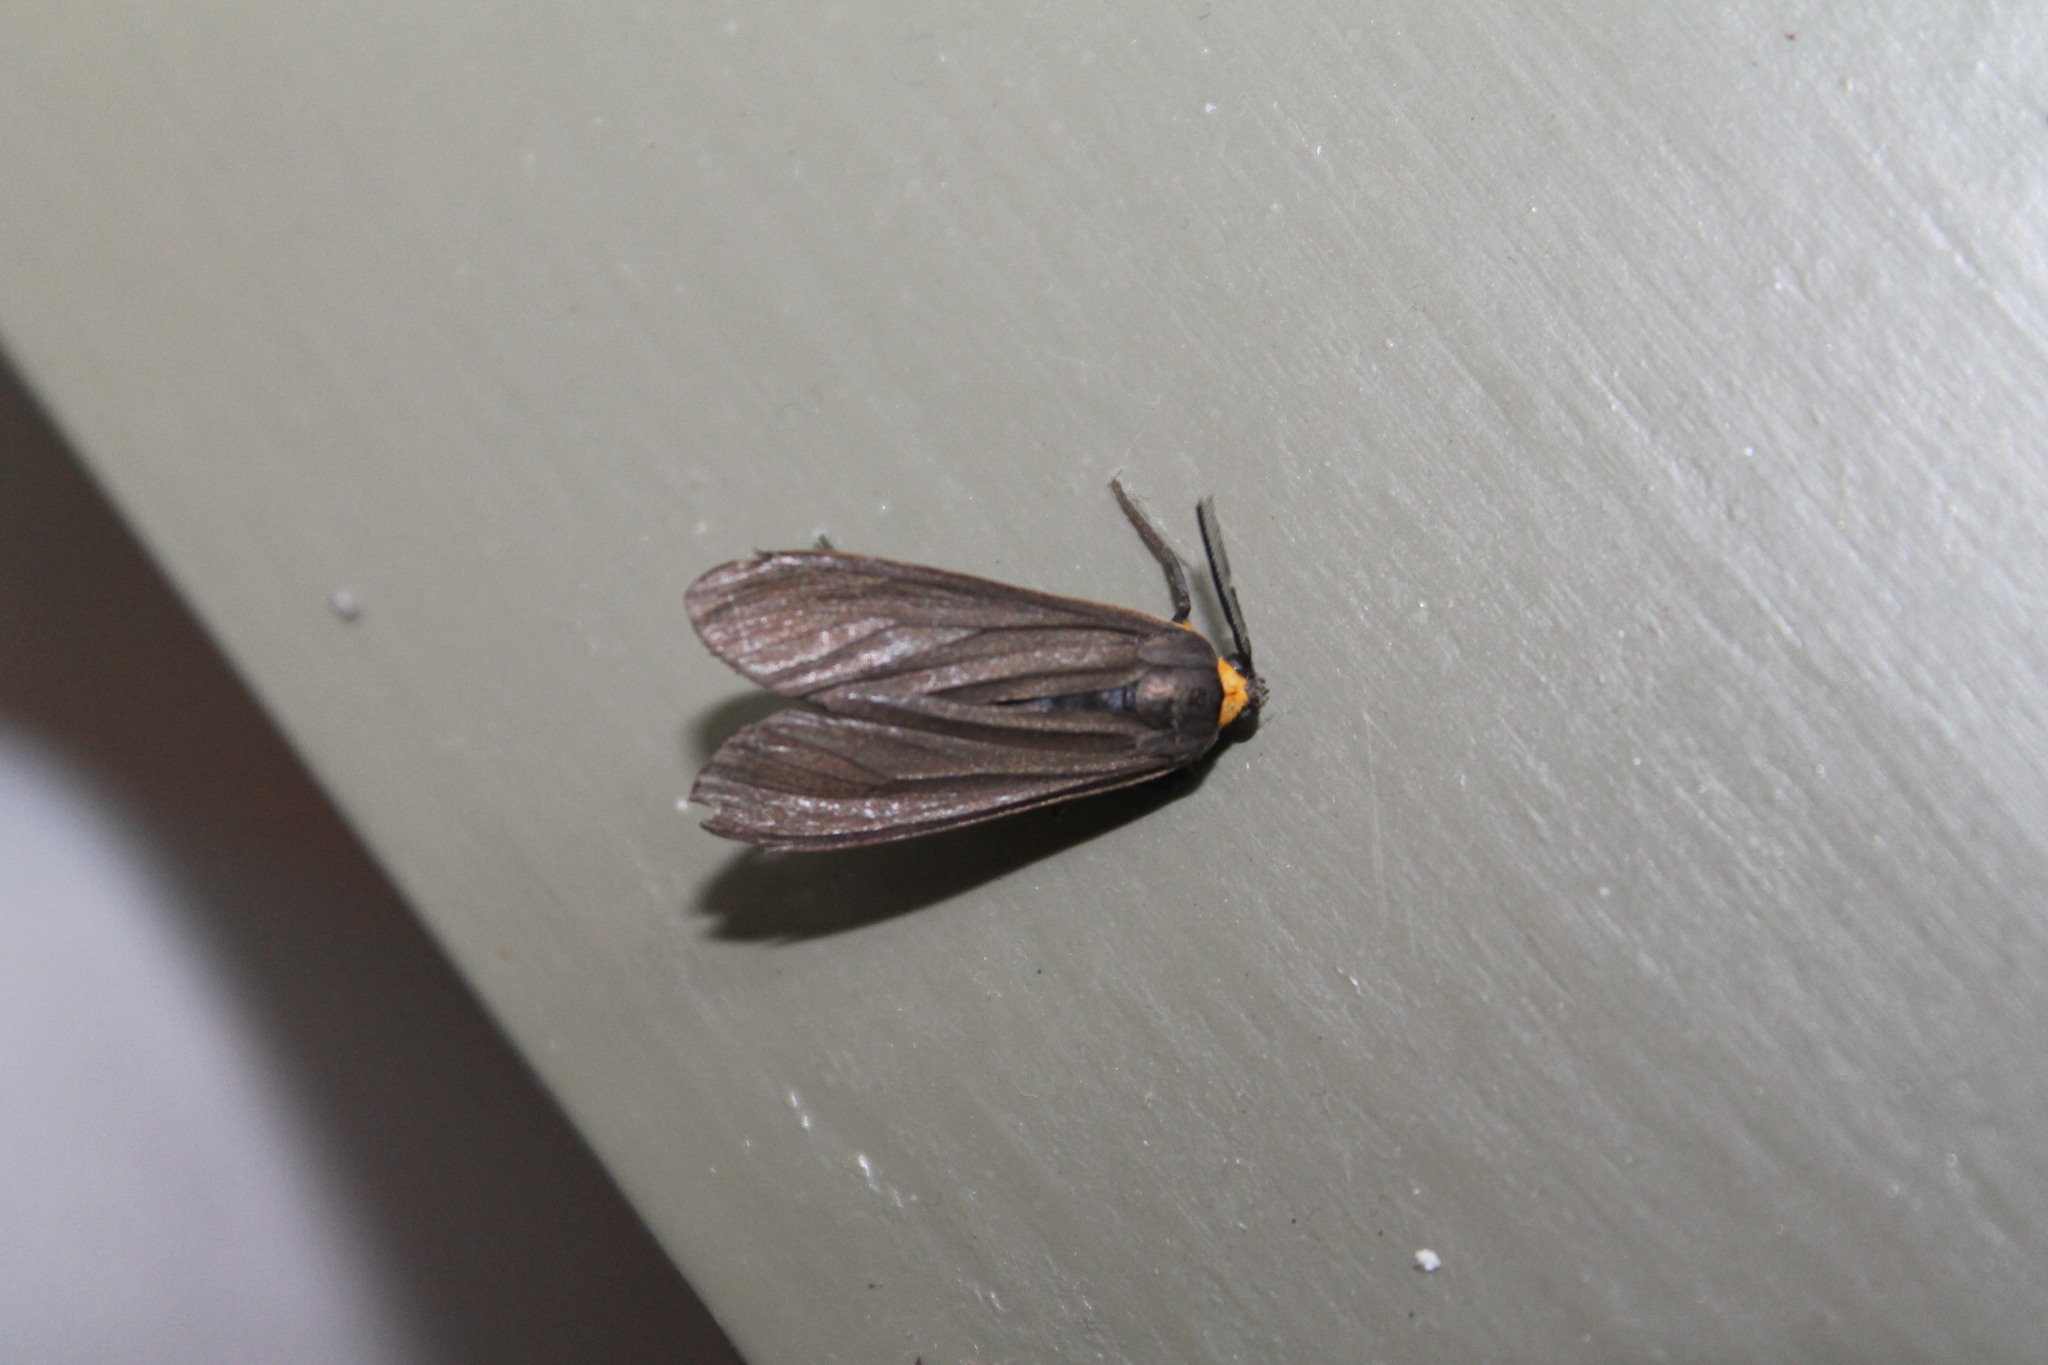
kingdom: Animalia
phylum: Arthropoda
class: Insecta
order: Lepidoptera
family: Erebidae
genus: Cisseps
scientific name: Cisseps fulvicollis
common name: Yellow-collared scape moth
